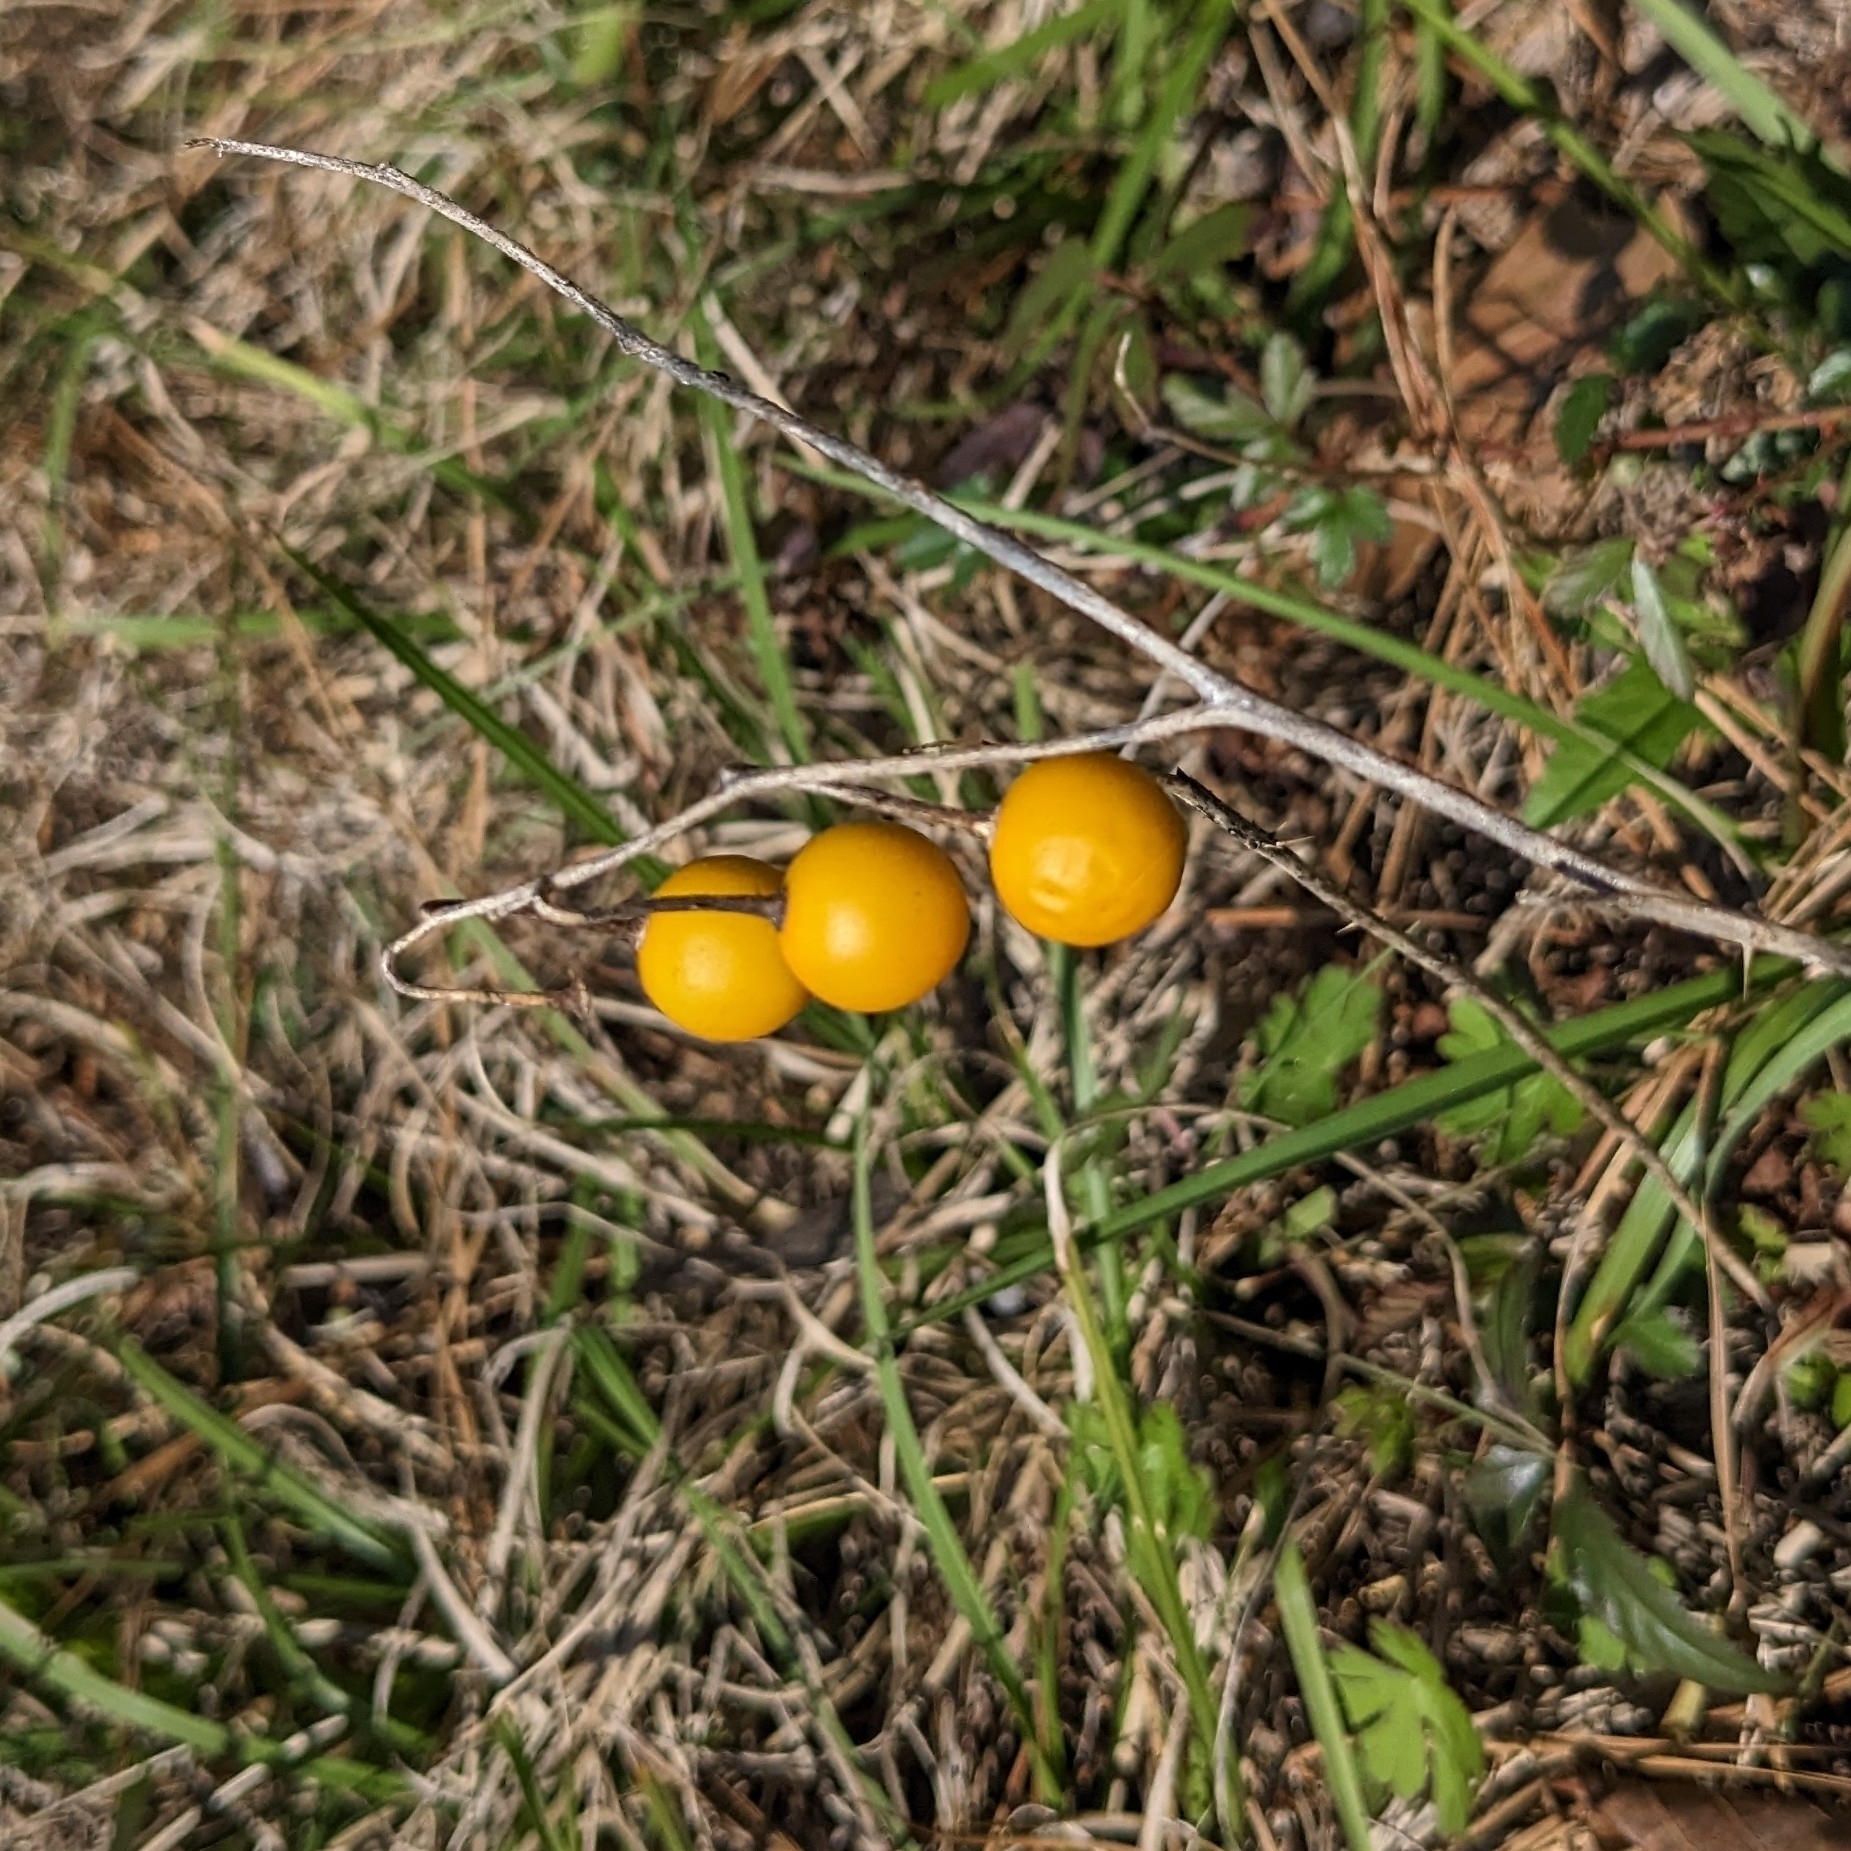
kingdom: Plantae
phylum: Tracheophyta
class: Magnoliopsida
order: Solanales
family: Solanaceae
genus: Solanum
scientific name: Solanum carolinense
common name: Horse-nettle
